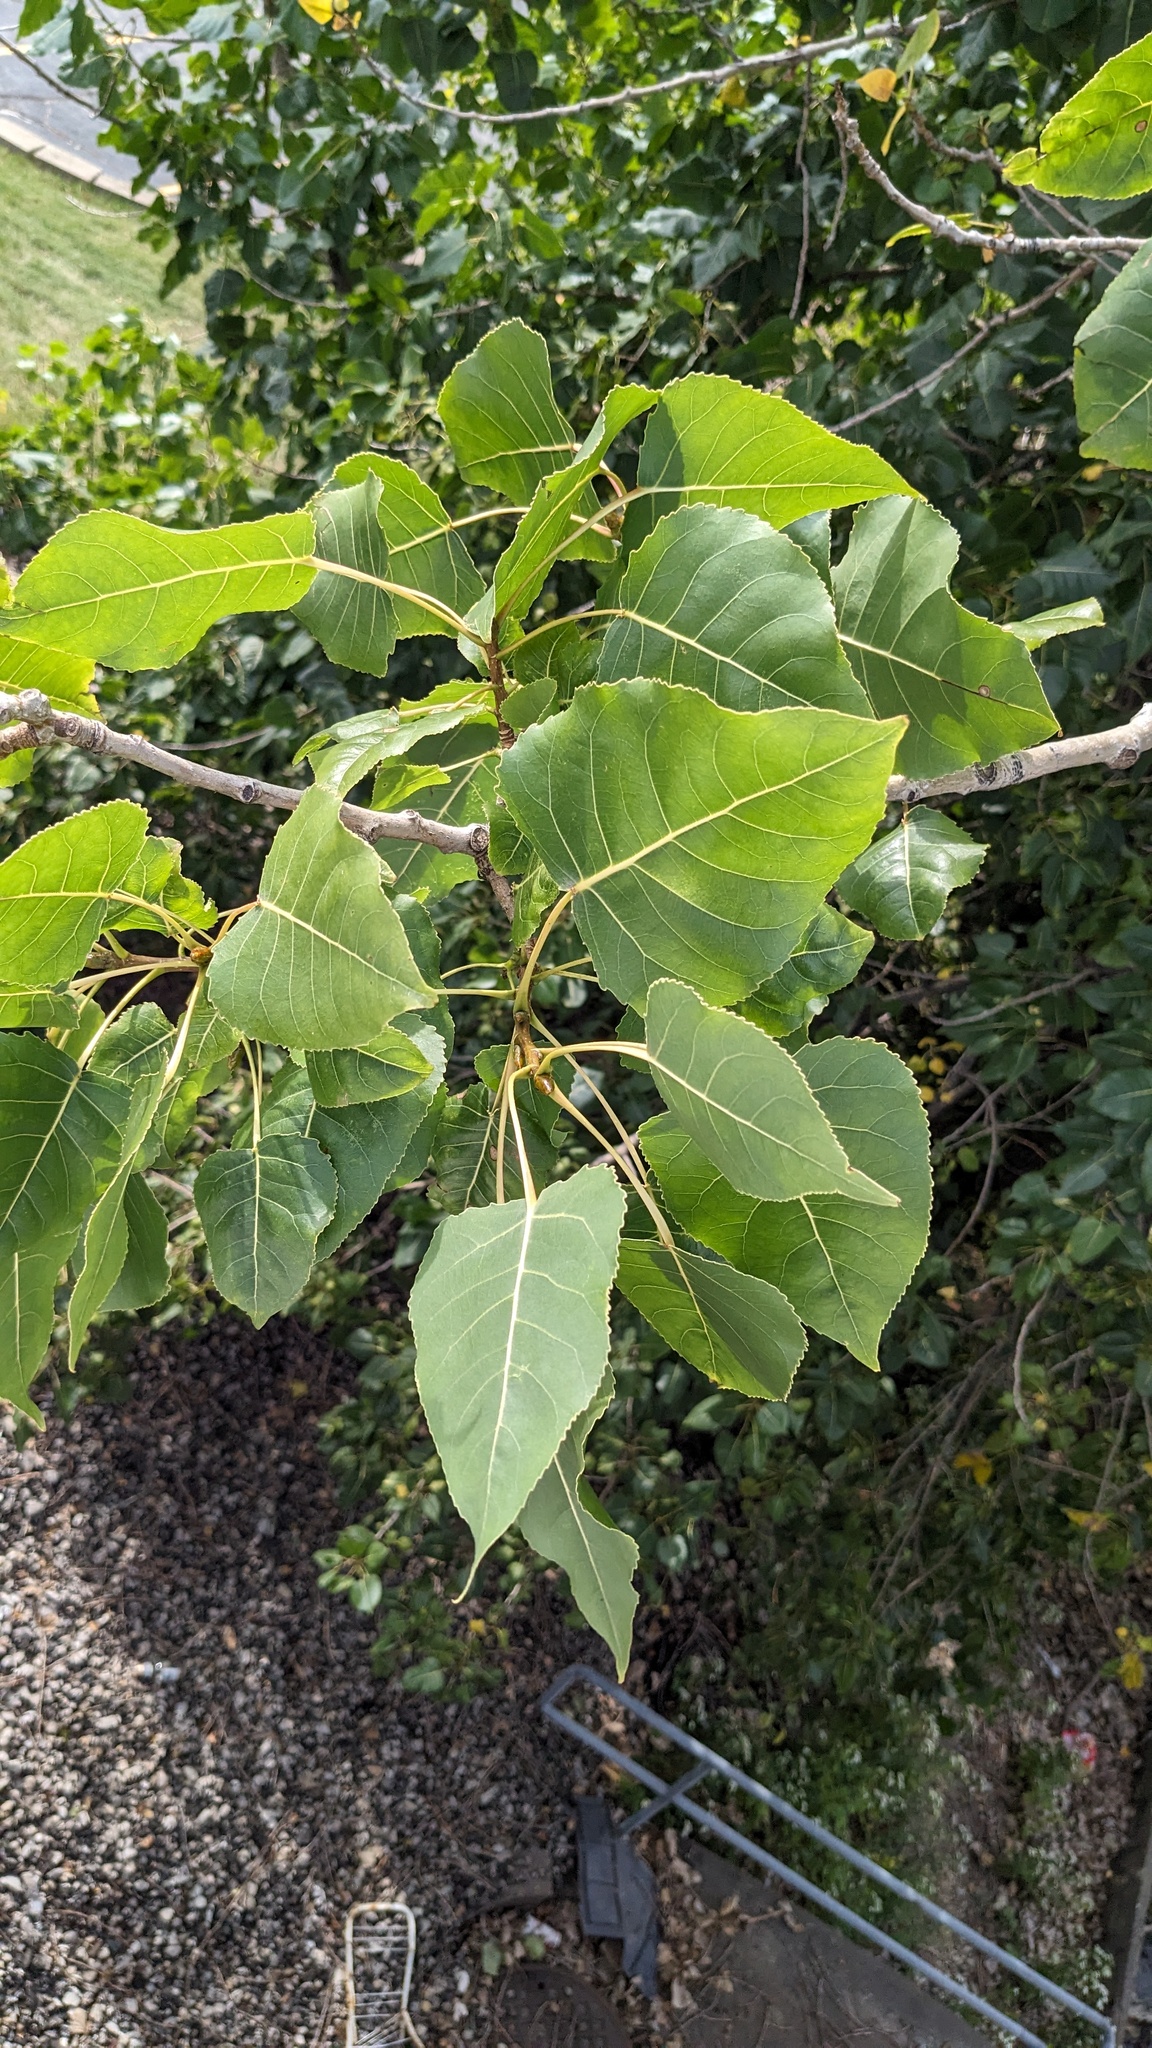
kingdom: Plantae
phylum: Tracheophyta
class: Magnoliopsida
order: Malpighiales
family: Salicaceae
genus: Populus
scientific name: Populus deltoides
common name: Eastern cottonwood
